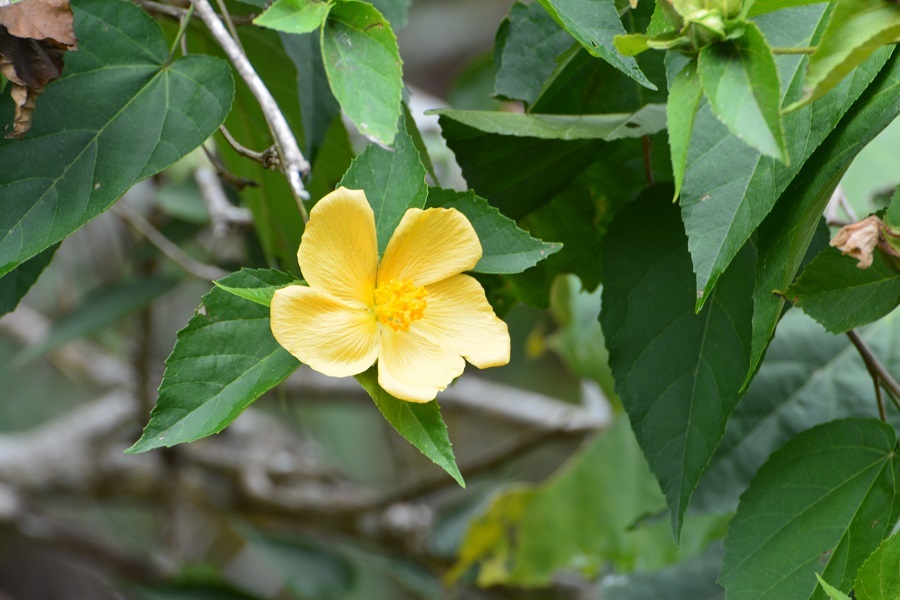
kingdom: Plantae
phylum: Tracheophyta
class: Magnoliopsida
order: Malvales
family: Malvaceae
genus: Dendrosida
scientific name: Dendrosida sharpiana
